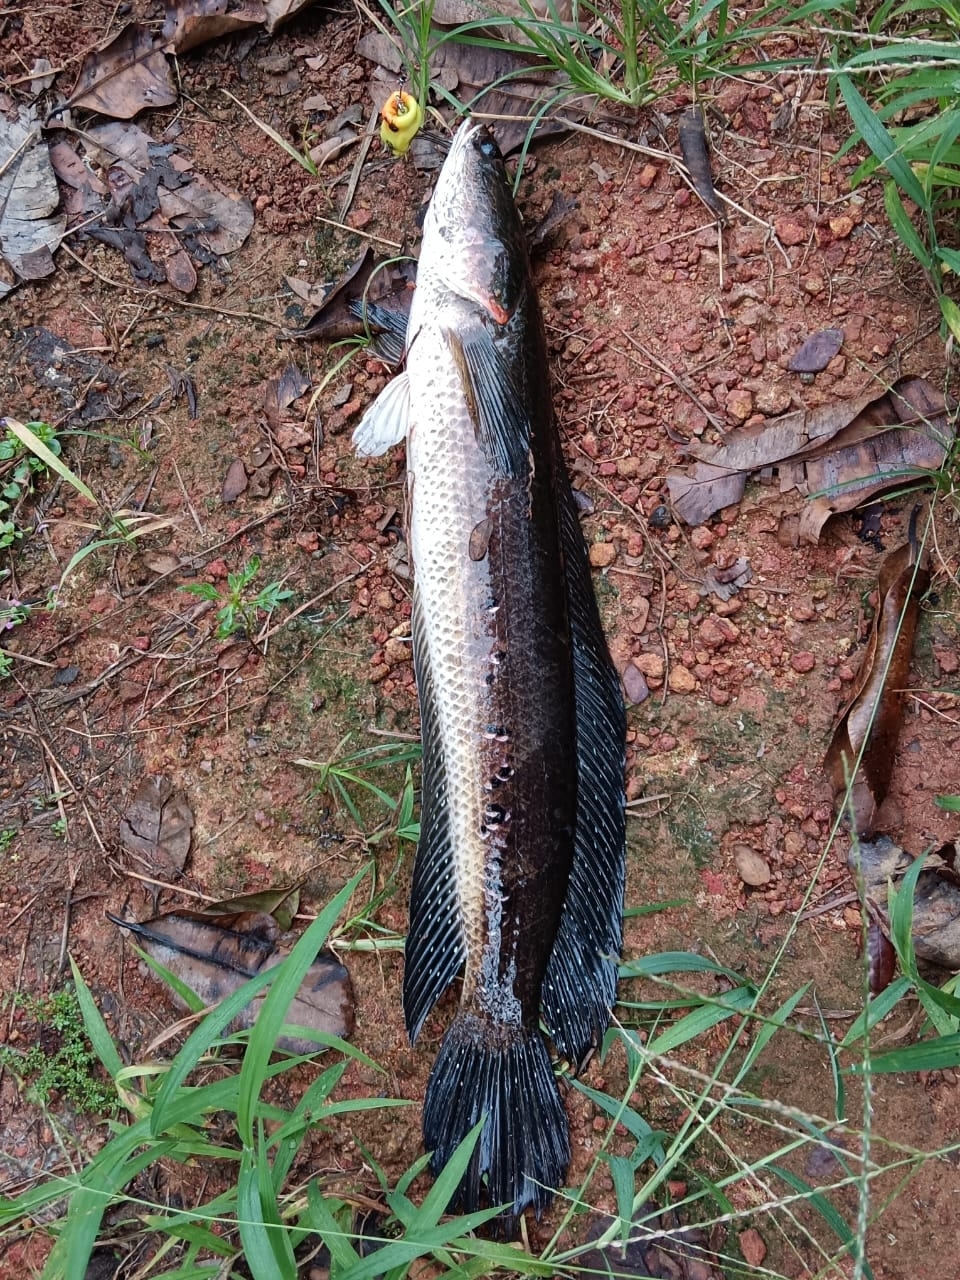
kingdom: Animalia
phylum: Chordata
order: Perciformes
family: Channidae
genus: Channa
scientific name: Channa marulius
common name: Giant snakehead
